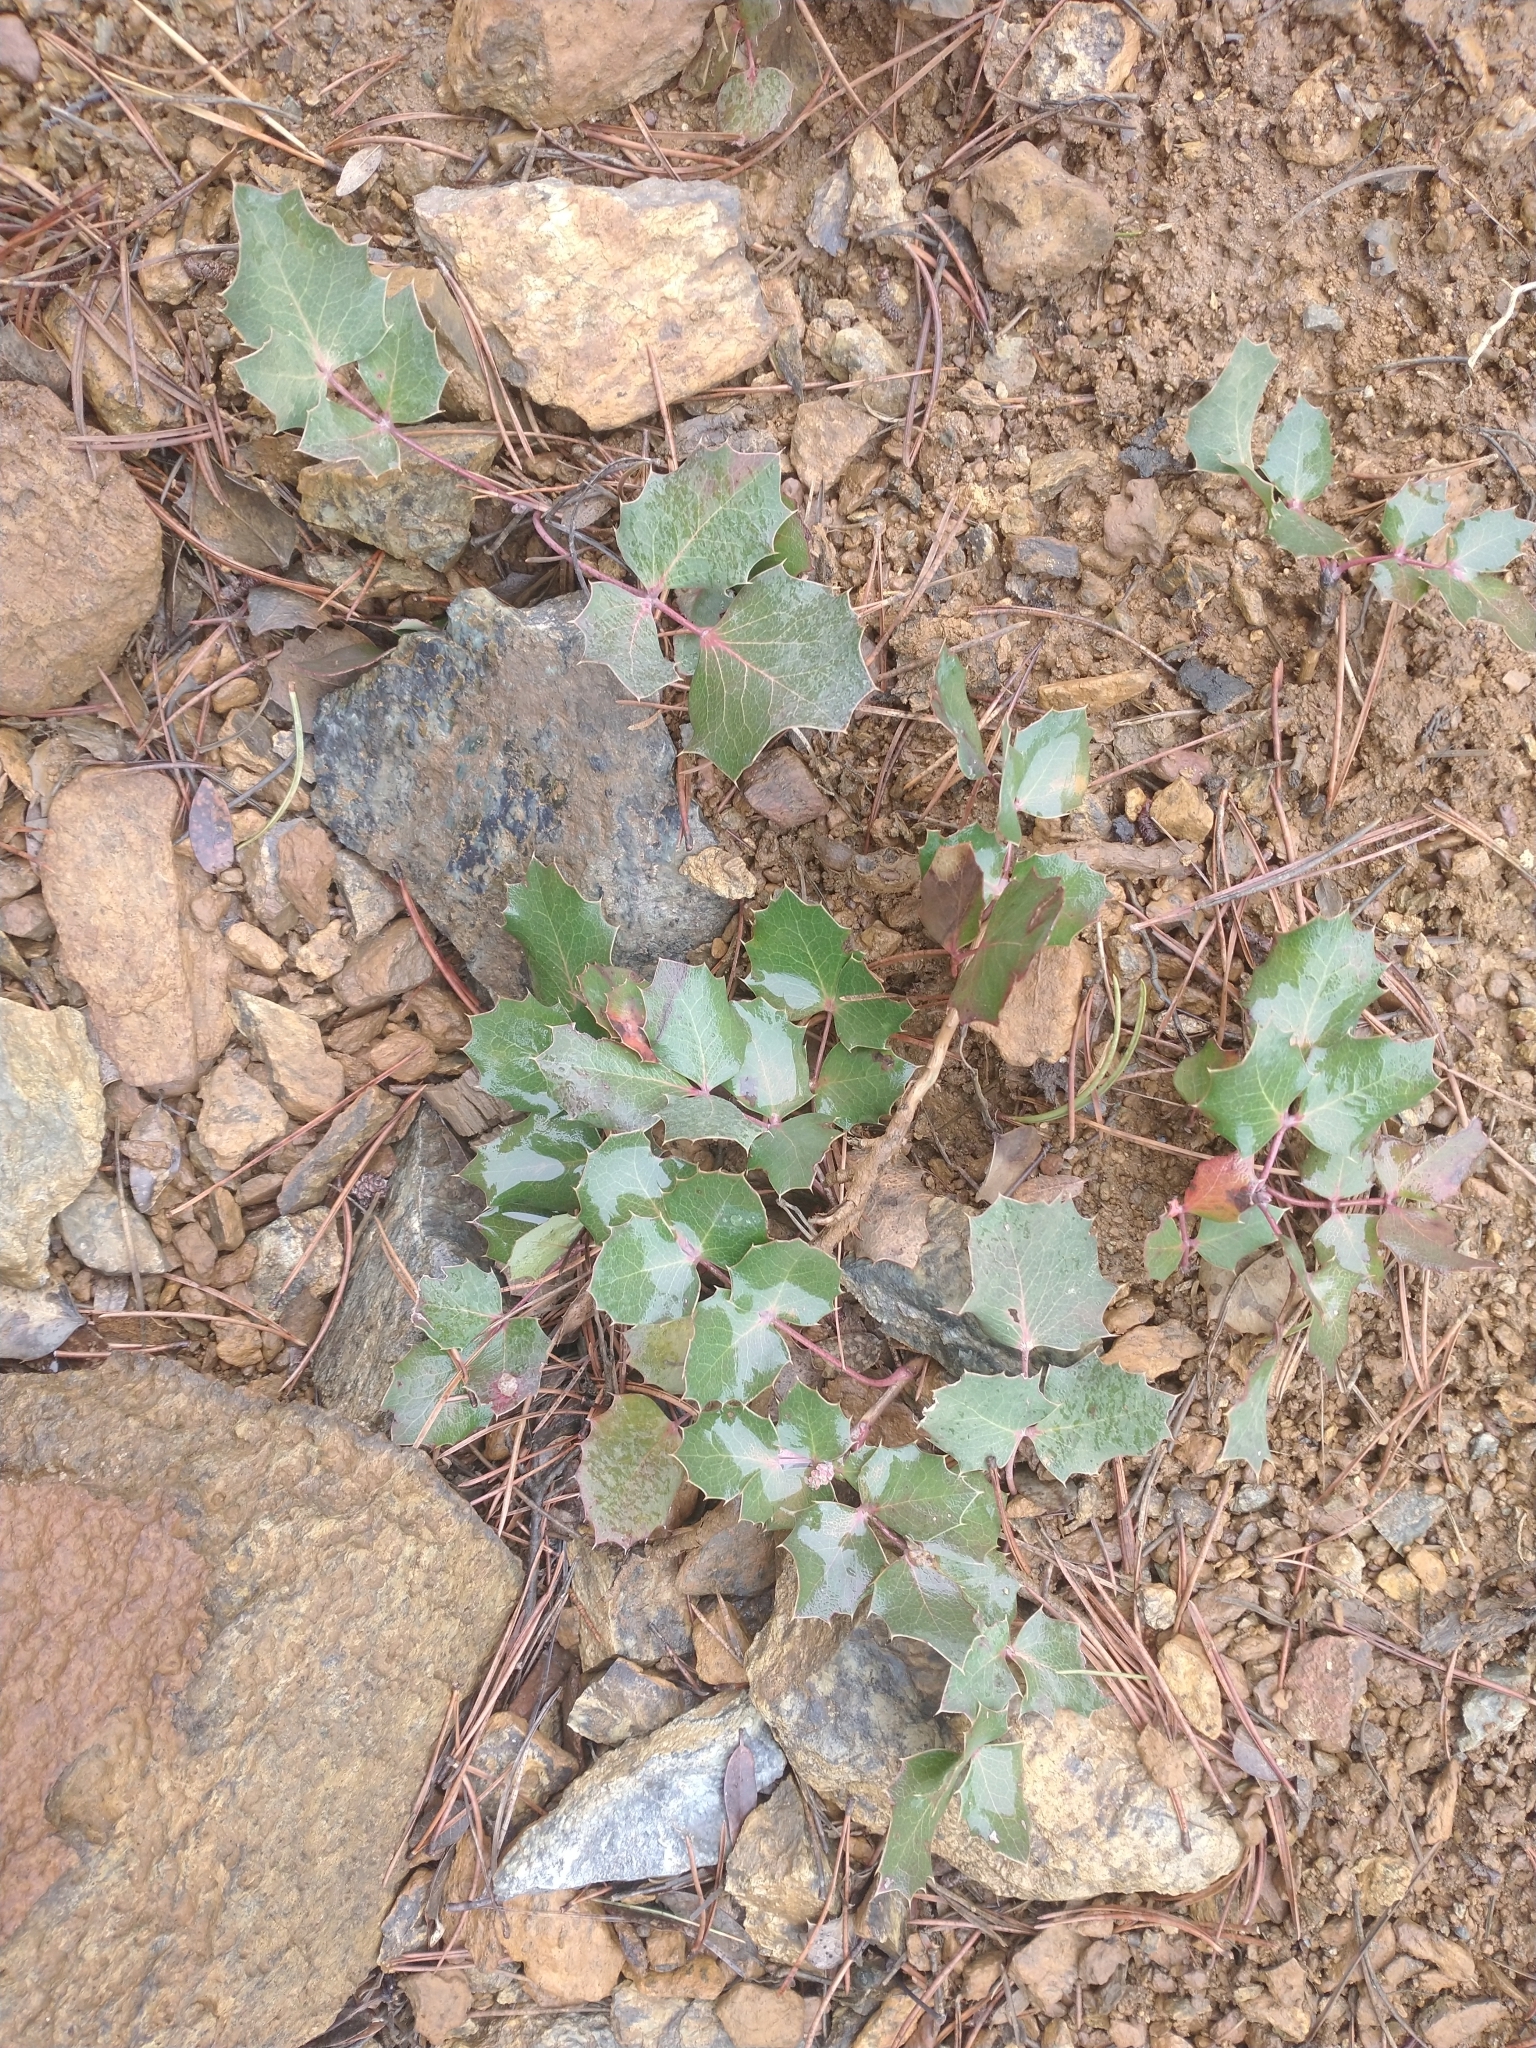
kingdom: Plantae
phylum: Tracheophyta
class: Magnoliopsida
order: Ranunculales
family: Berberidaceae
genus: Mahonia
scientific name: Mahonia repens
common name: Creeping oregon-grape
